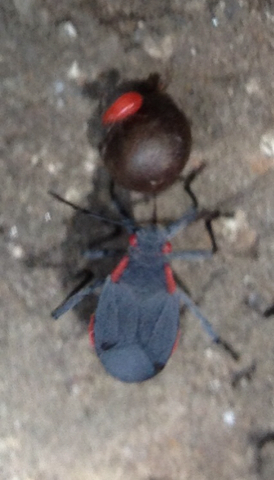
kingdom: Animalia
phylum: Arthropoda
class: Insecta
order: Hemiptera
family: Rhopalidae
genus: Jadera
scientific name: Jadera haematoloma
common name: Red-shouldered bug
